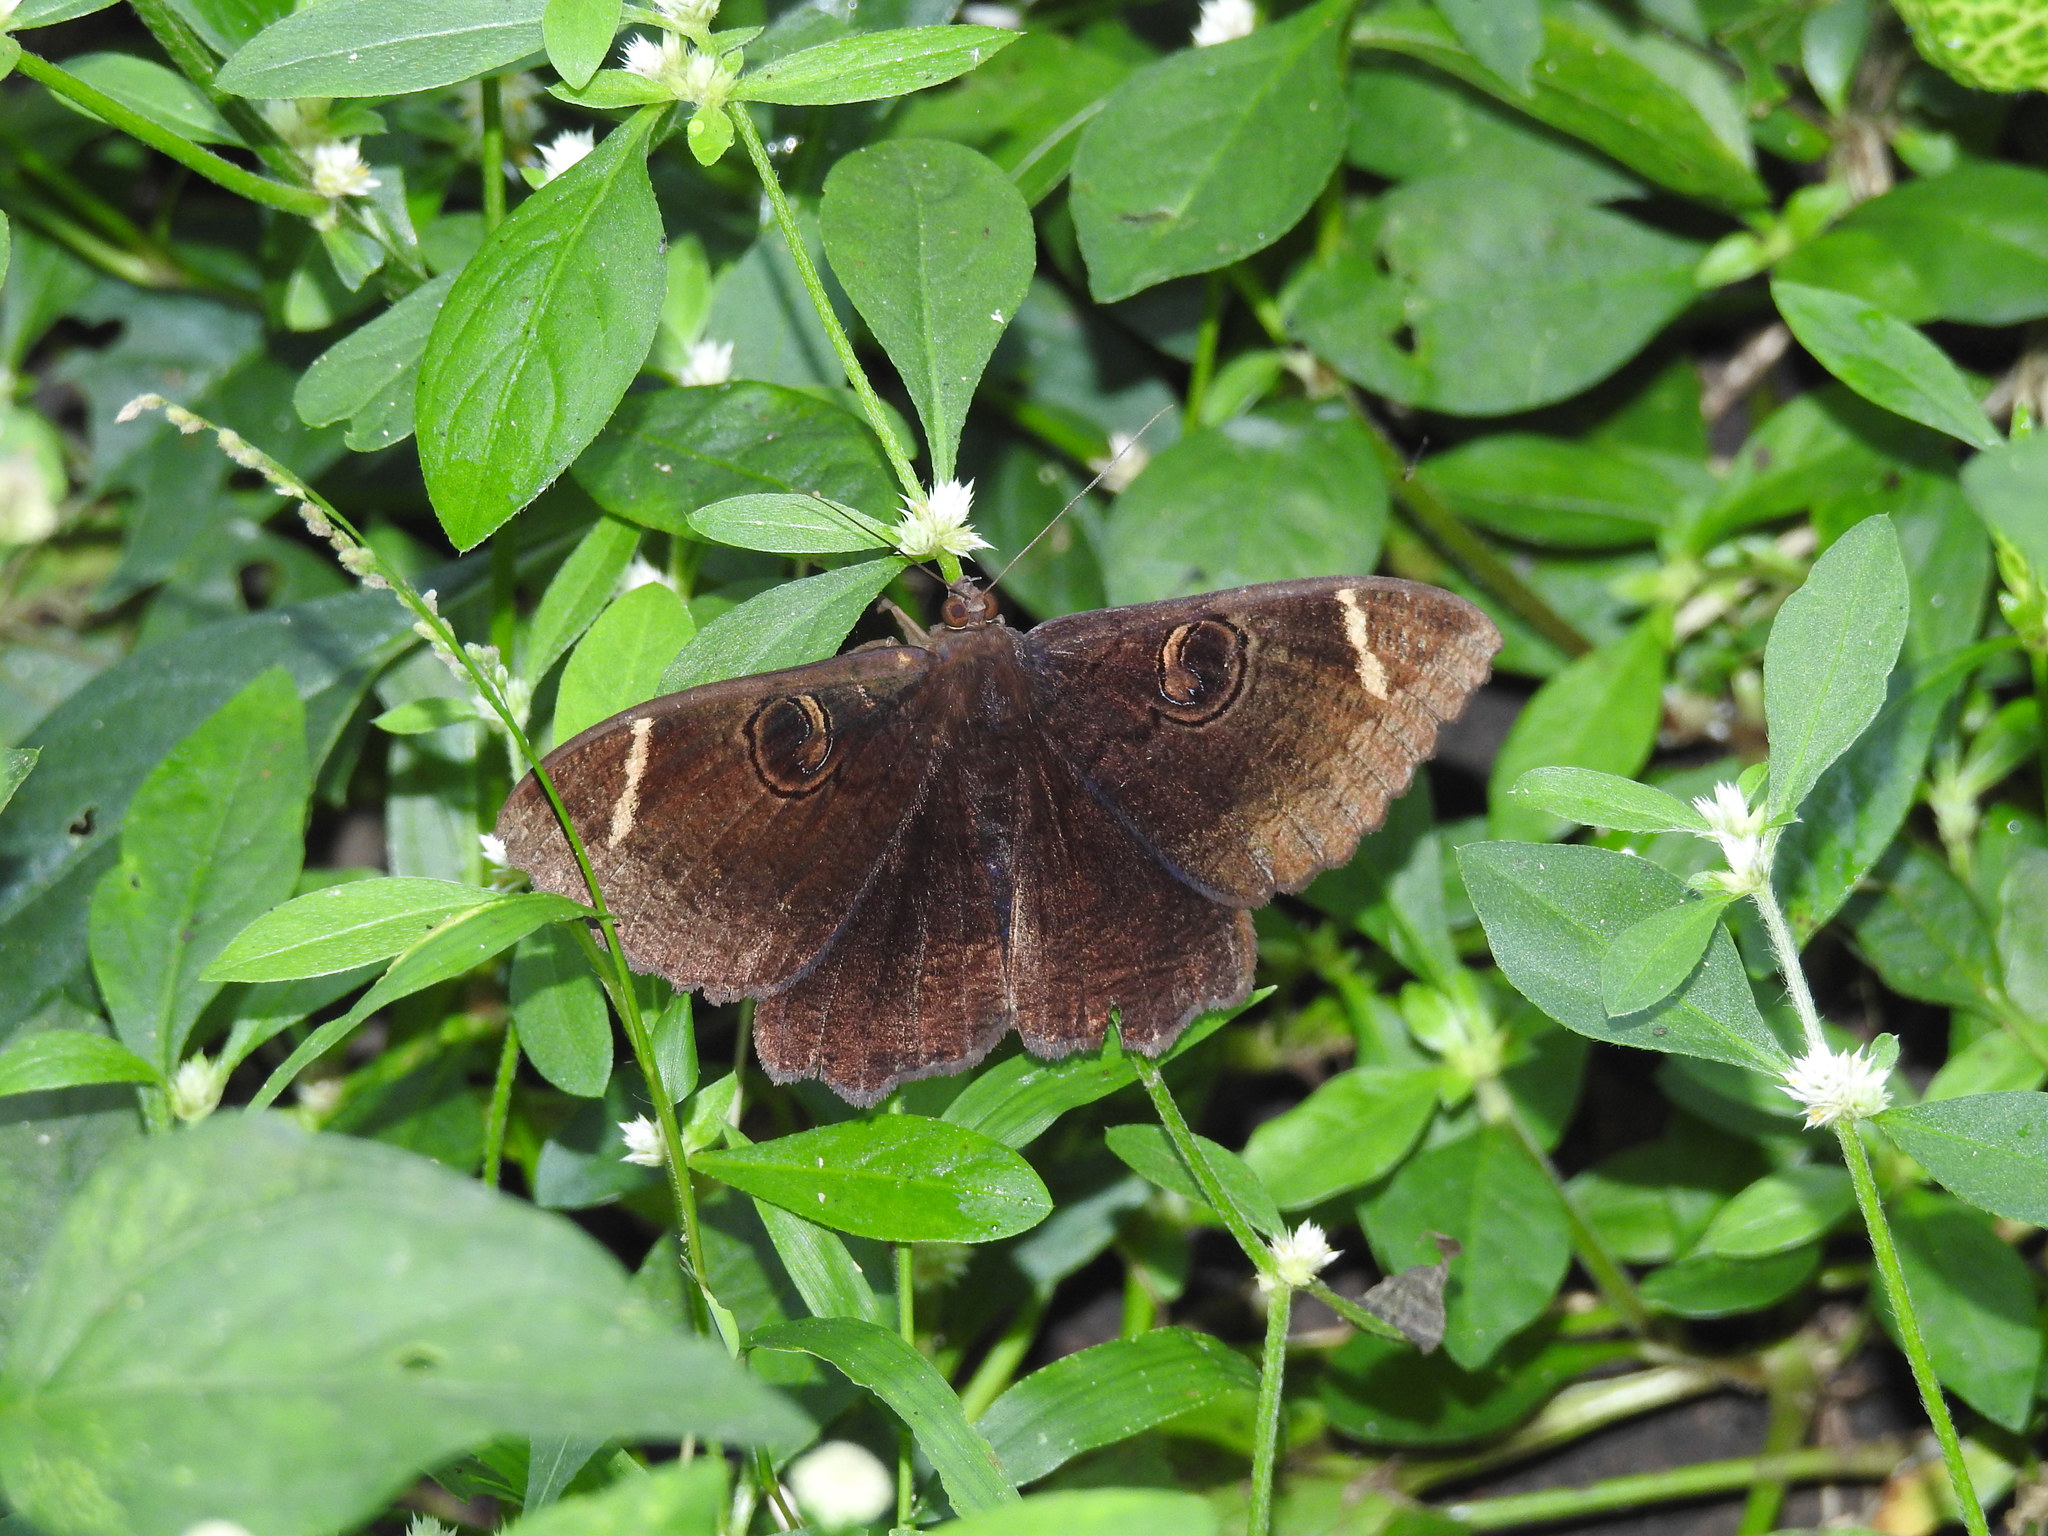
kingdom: Animalia
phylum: Arthropoda
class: Insecta
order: Lepidoptera
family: Erebidae
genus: Erebus
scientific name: Erebus hieroglyphica
